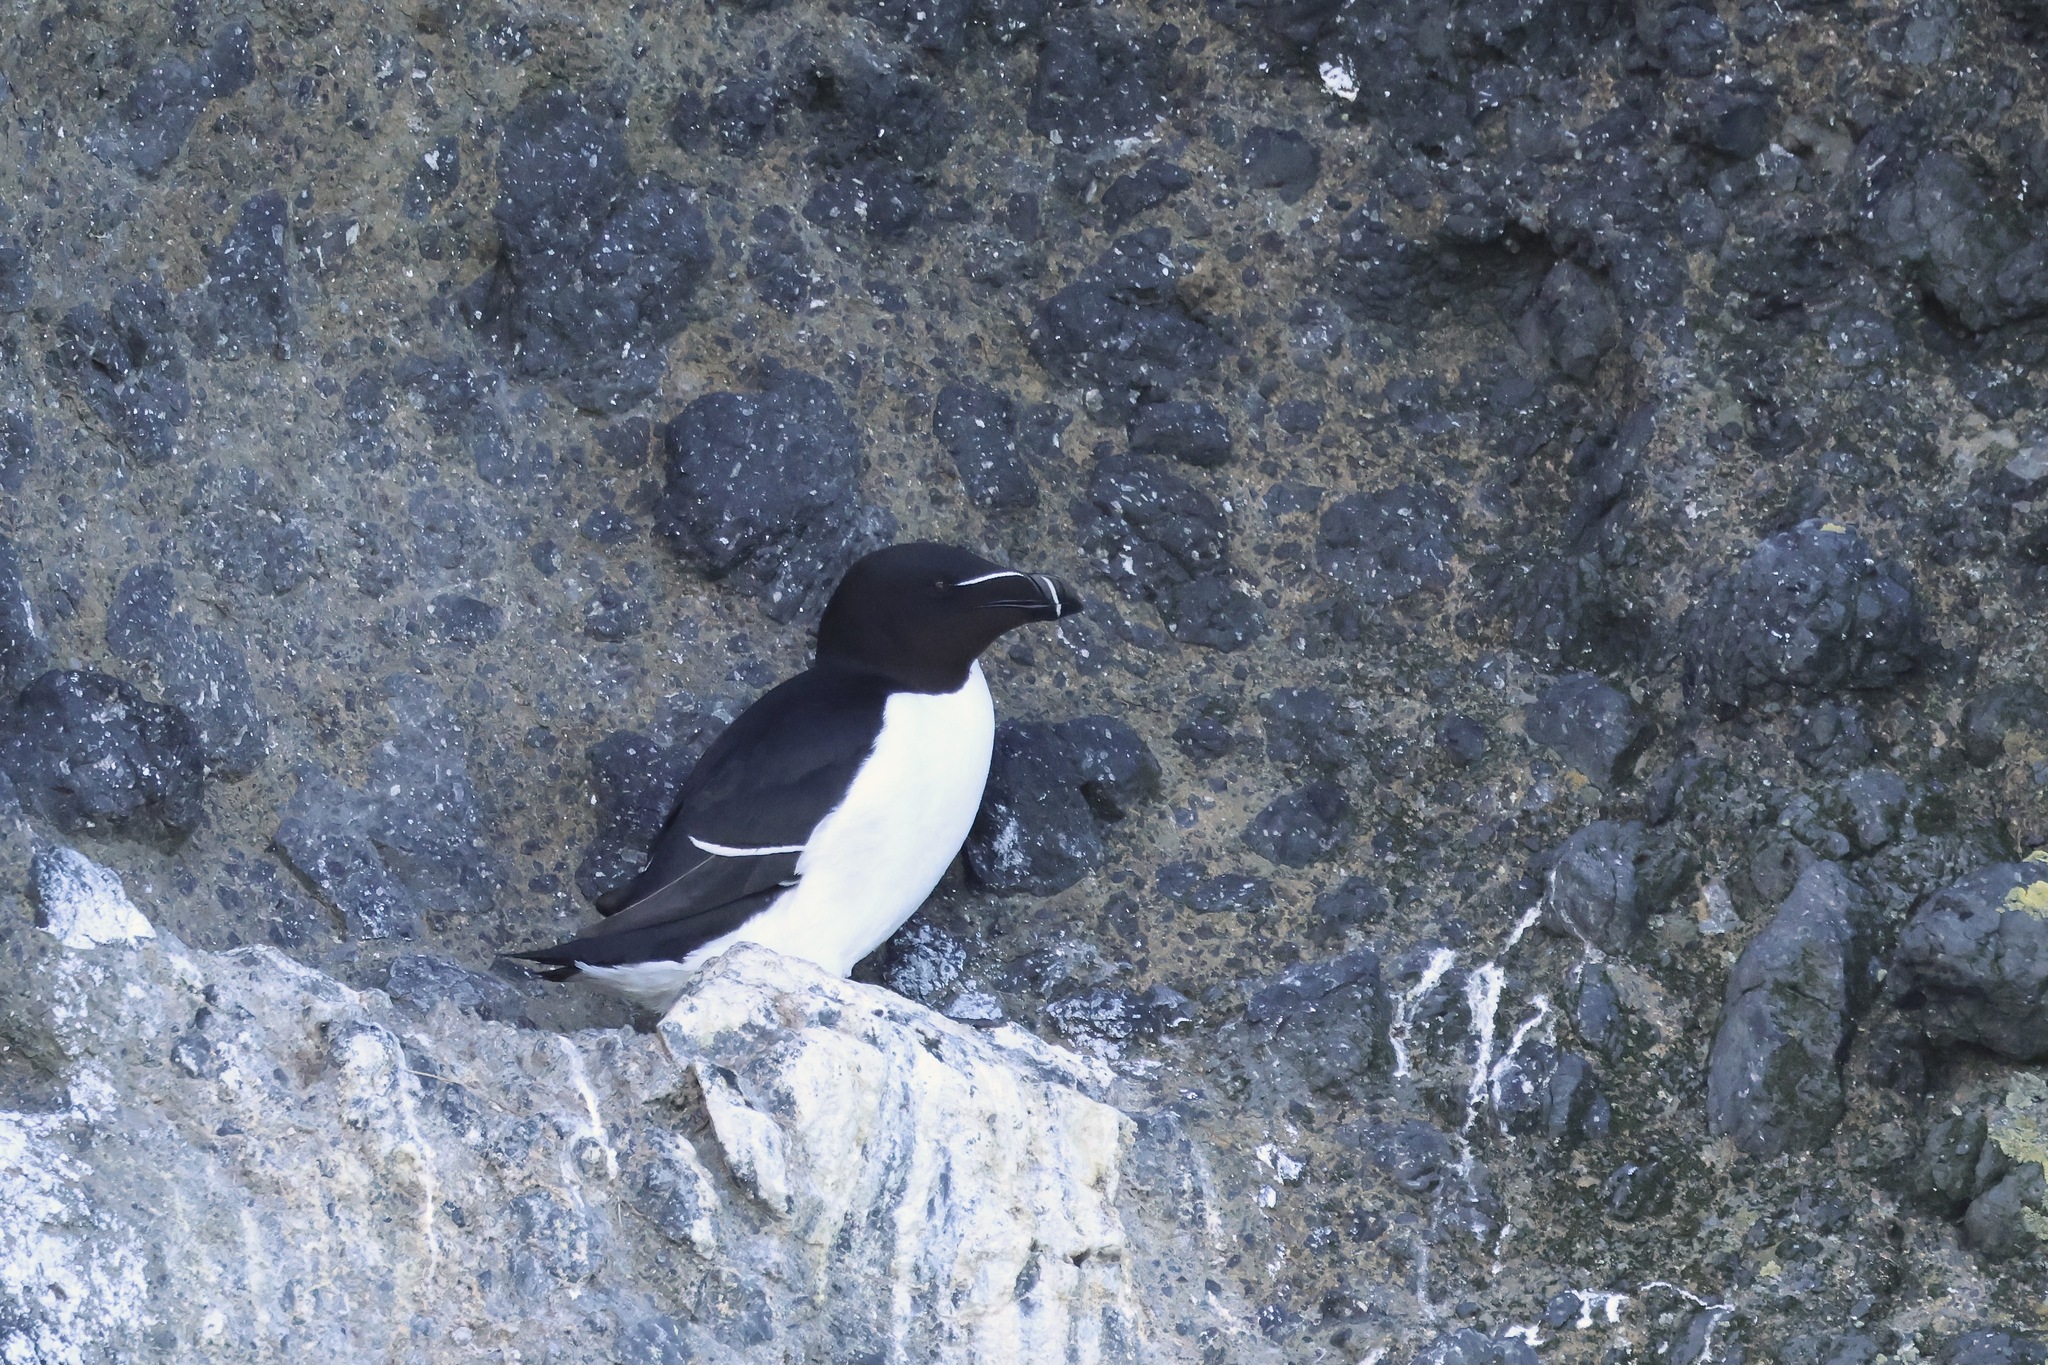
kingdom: Animalia
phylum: Chordata
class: Aves
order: Charadriiformes
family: Alcidae
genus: Alca
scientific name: Alca torda
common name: Razorbill
